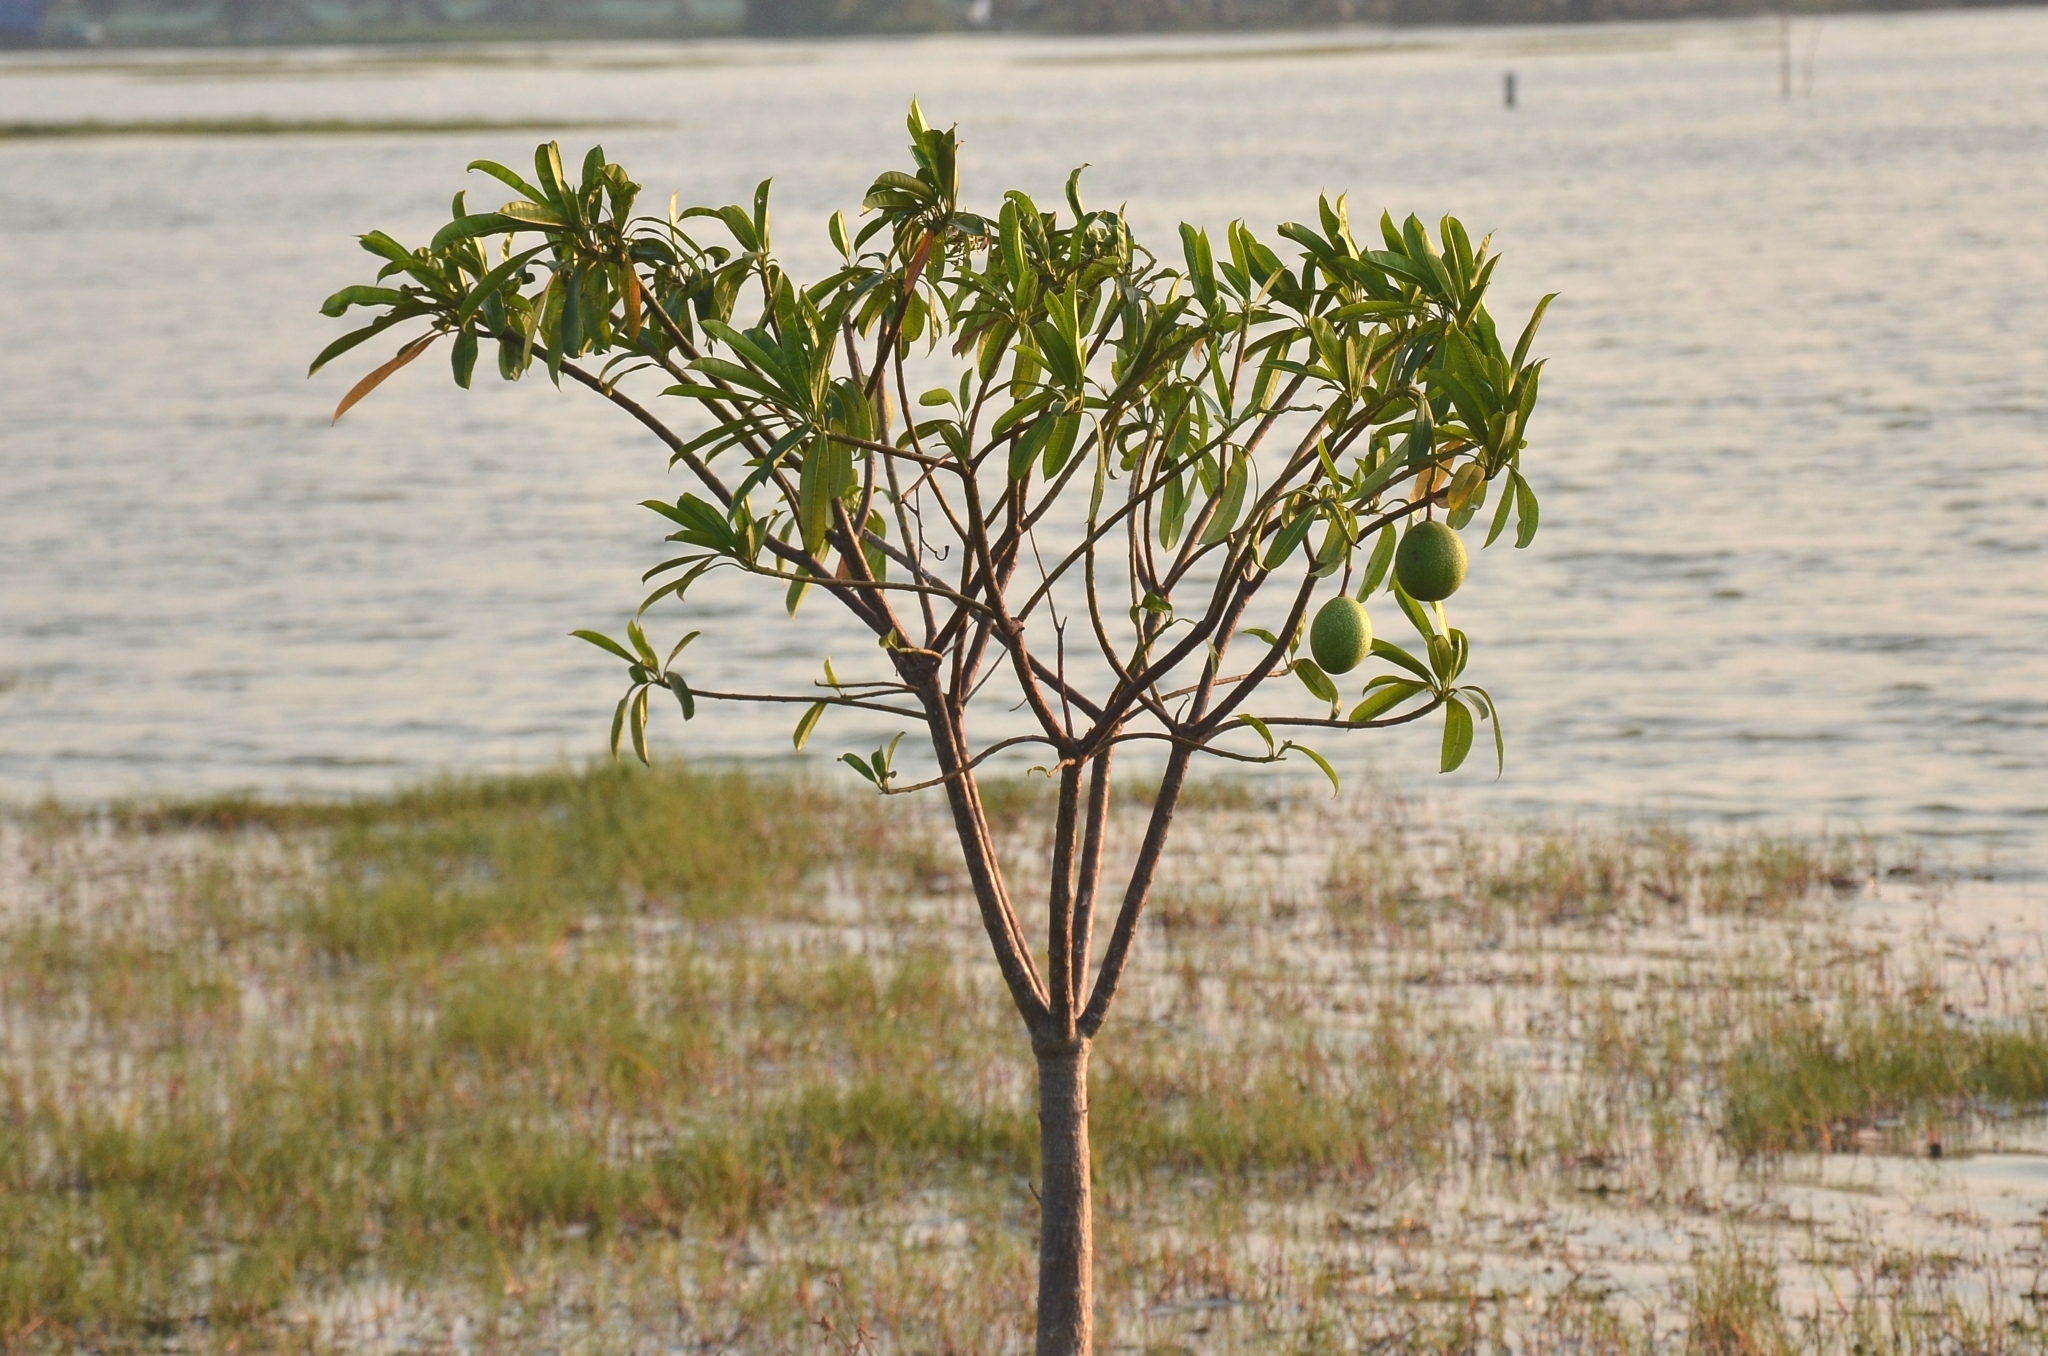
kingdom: Plantae
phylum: Tracheophyta
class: Magnoliopsida
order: Gentianales
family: Apocynaceae
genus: Cerbera
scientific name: Cerbera odollam
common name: Pong-pong
